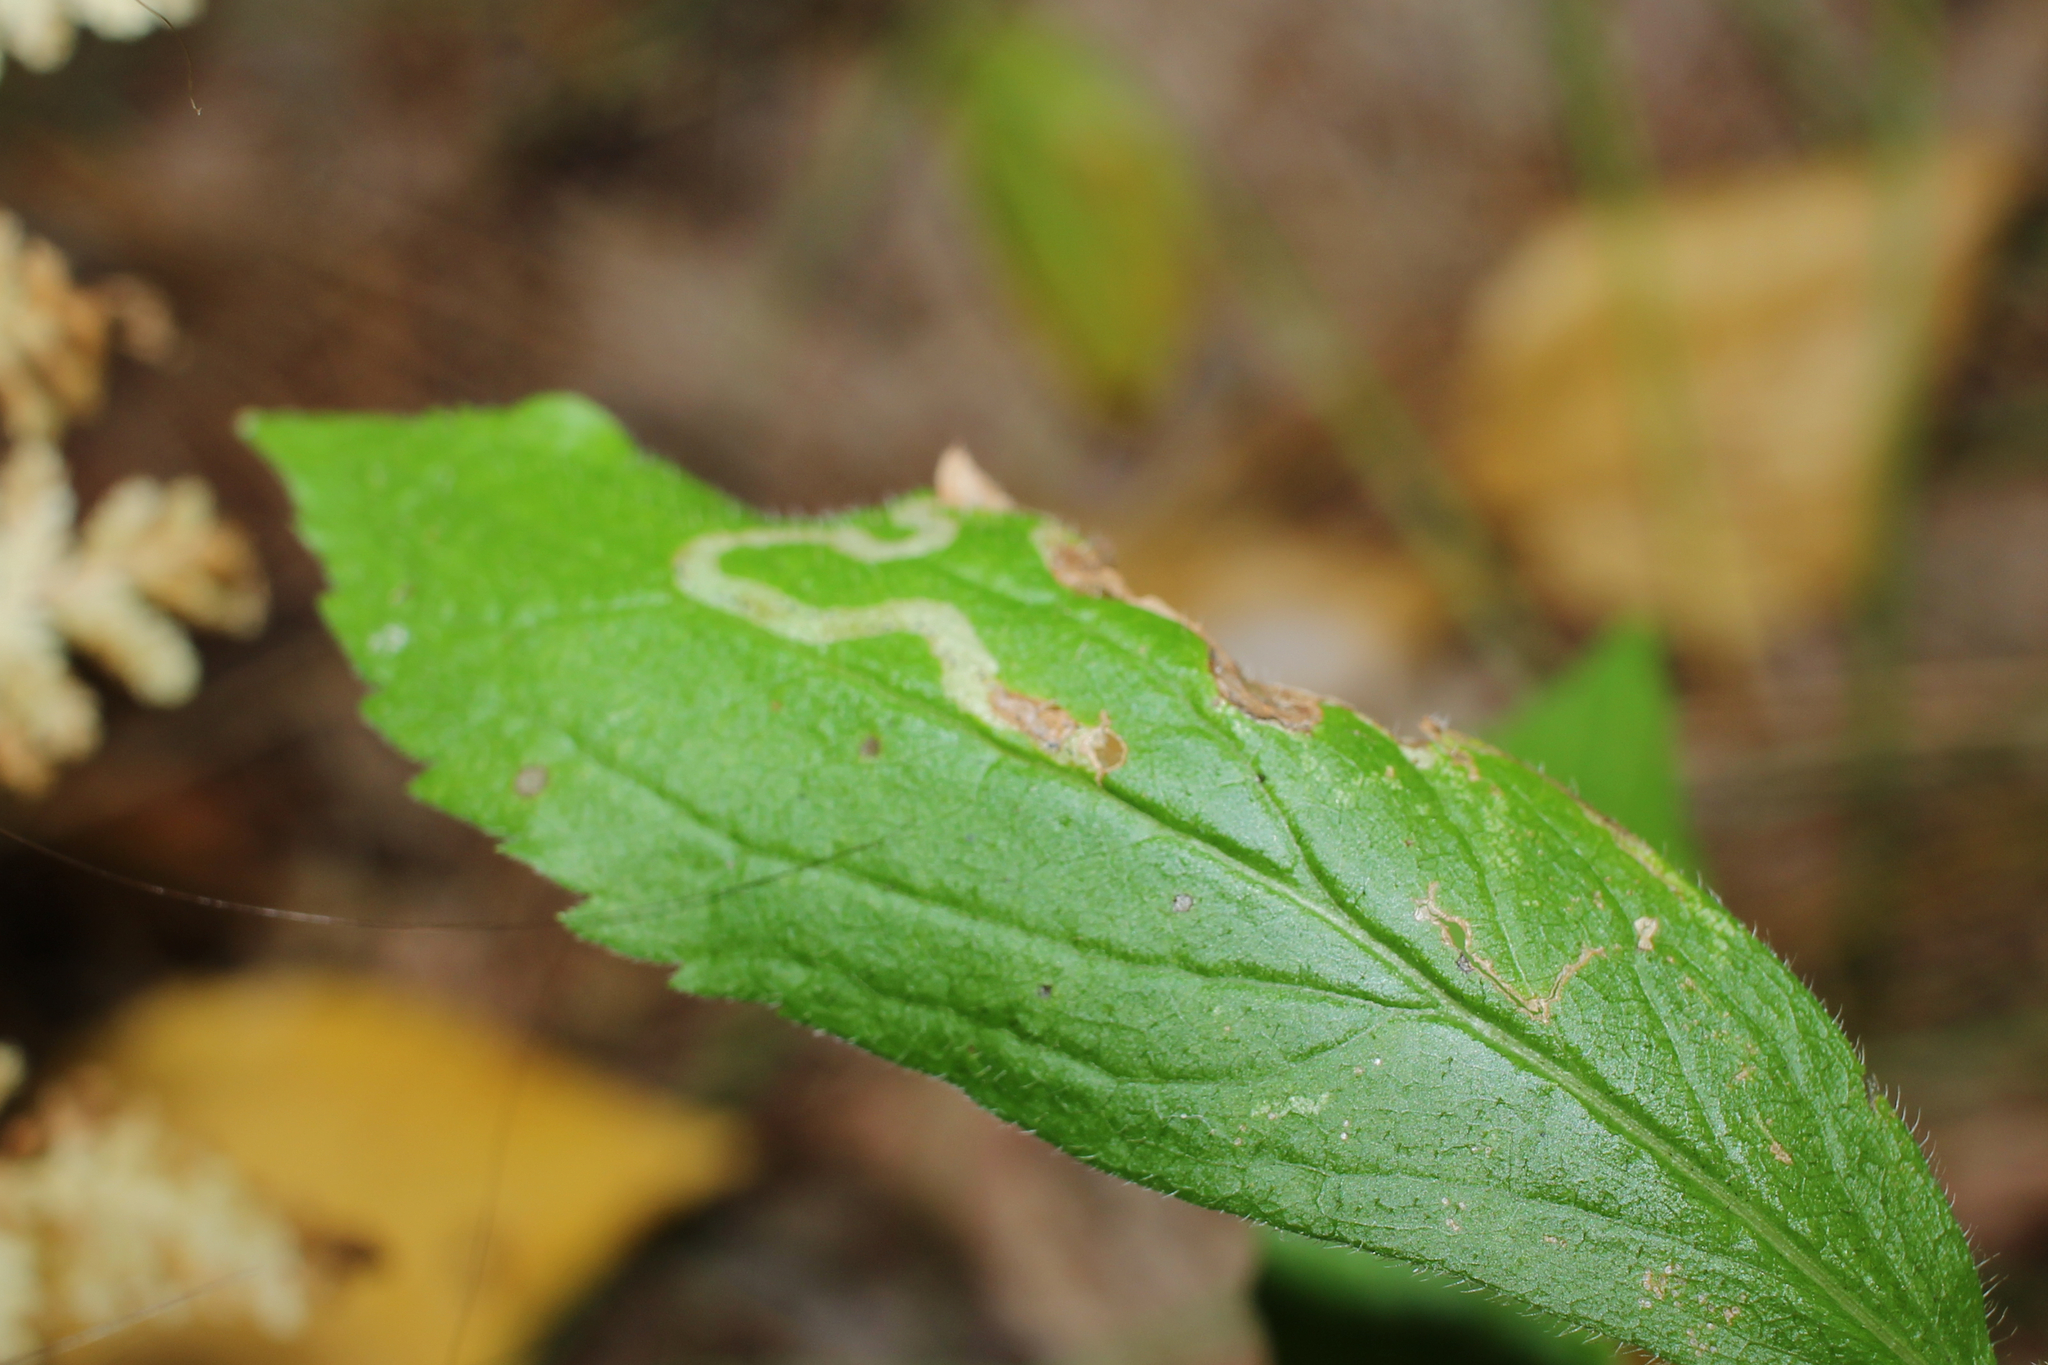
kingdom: Animalia
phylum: Arthropoda
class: Insecta
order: Diptera
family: Agromyzidae
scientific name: Agromyzidae
